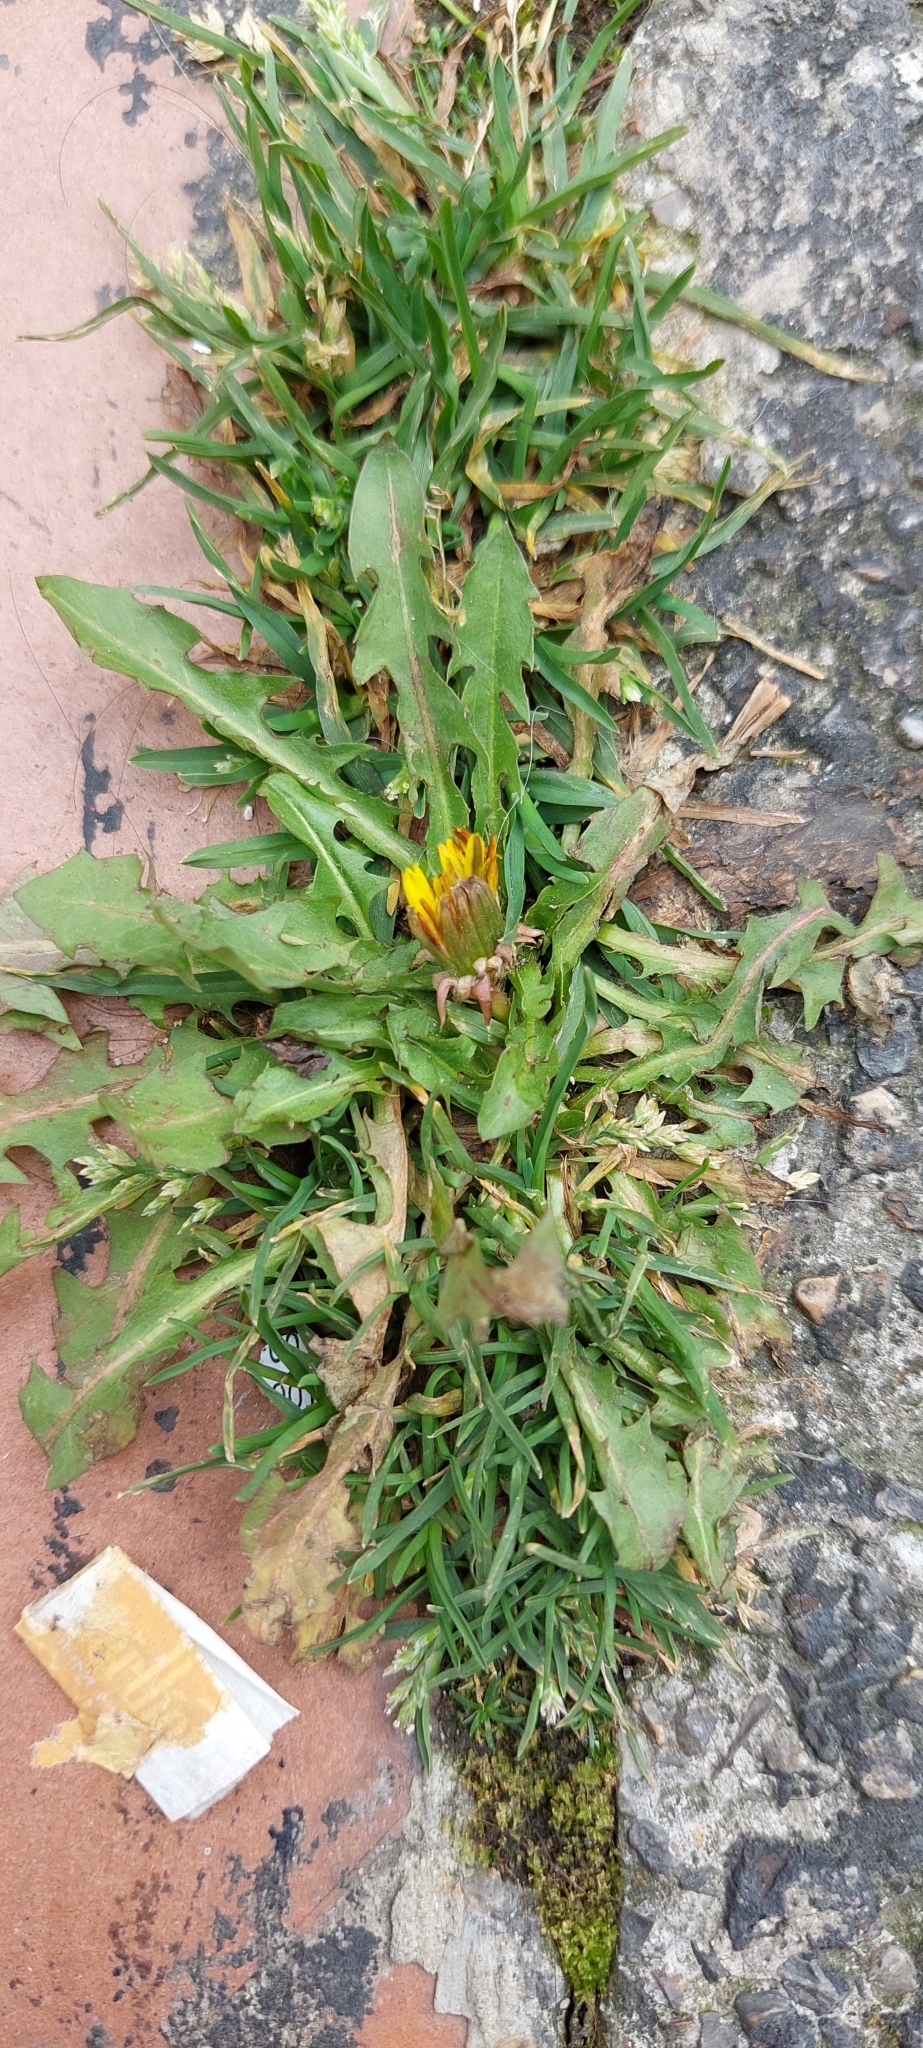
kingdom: Plantae
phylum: Tracheophyta
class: Magnoliopsida
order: Asterales
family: Asteraceae
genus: Taraxacum
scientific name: Taraxacum officinale
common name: Common dandelion
